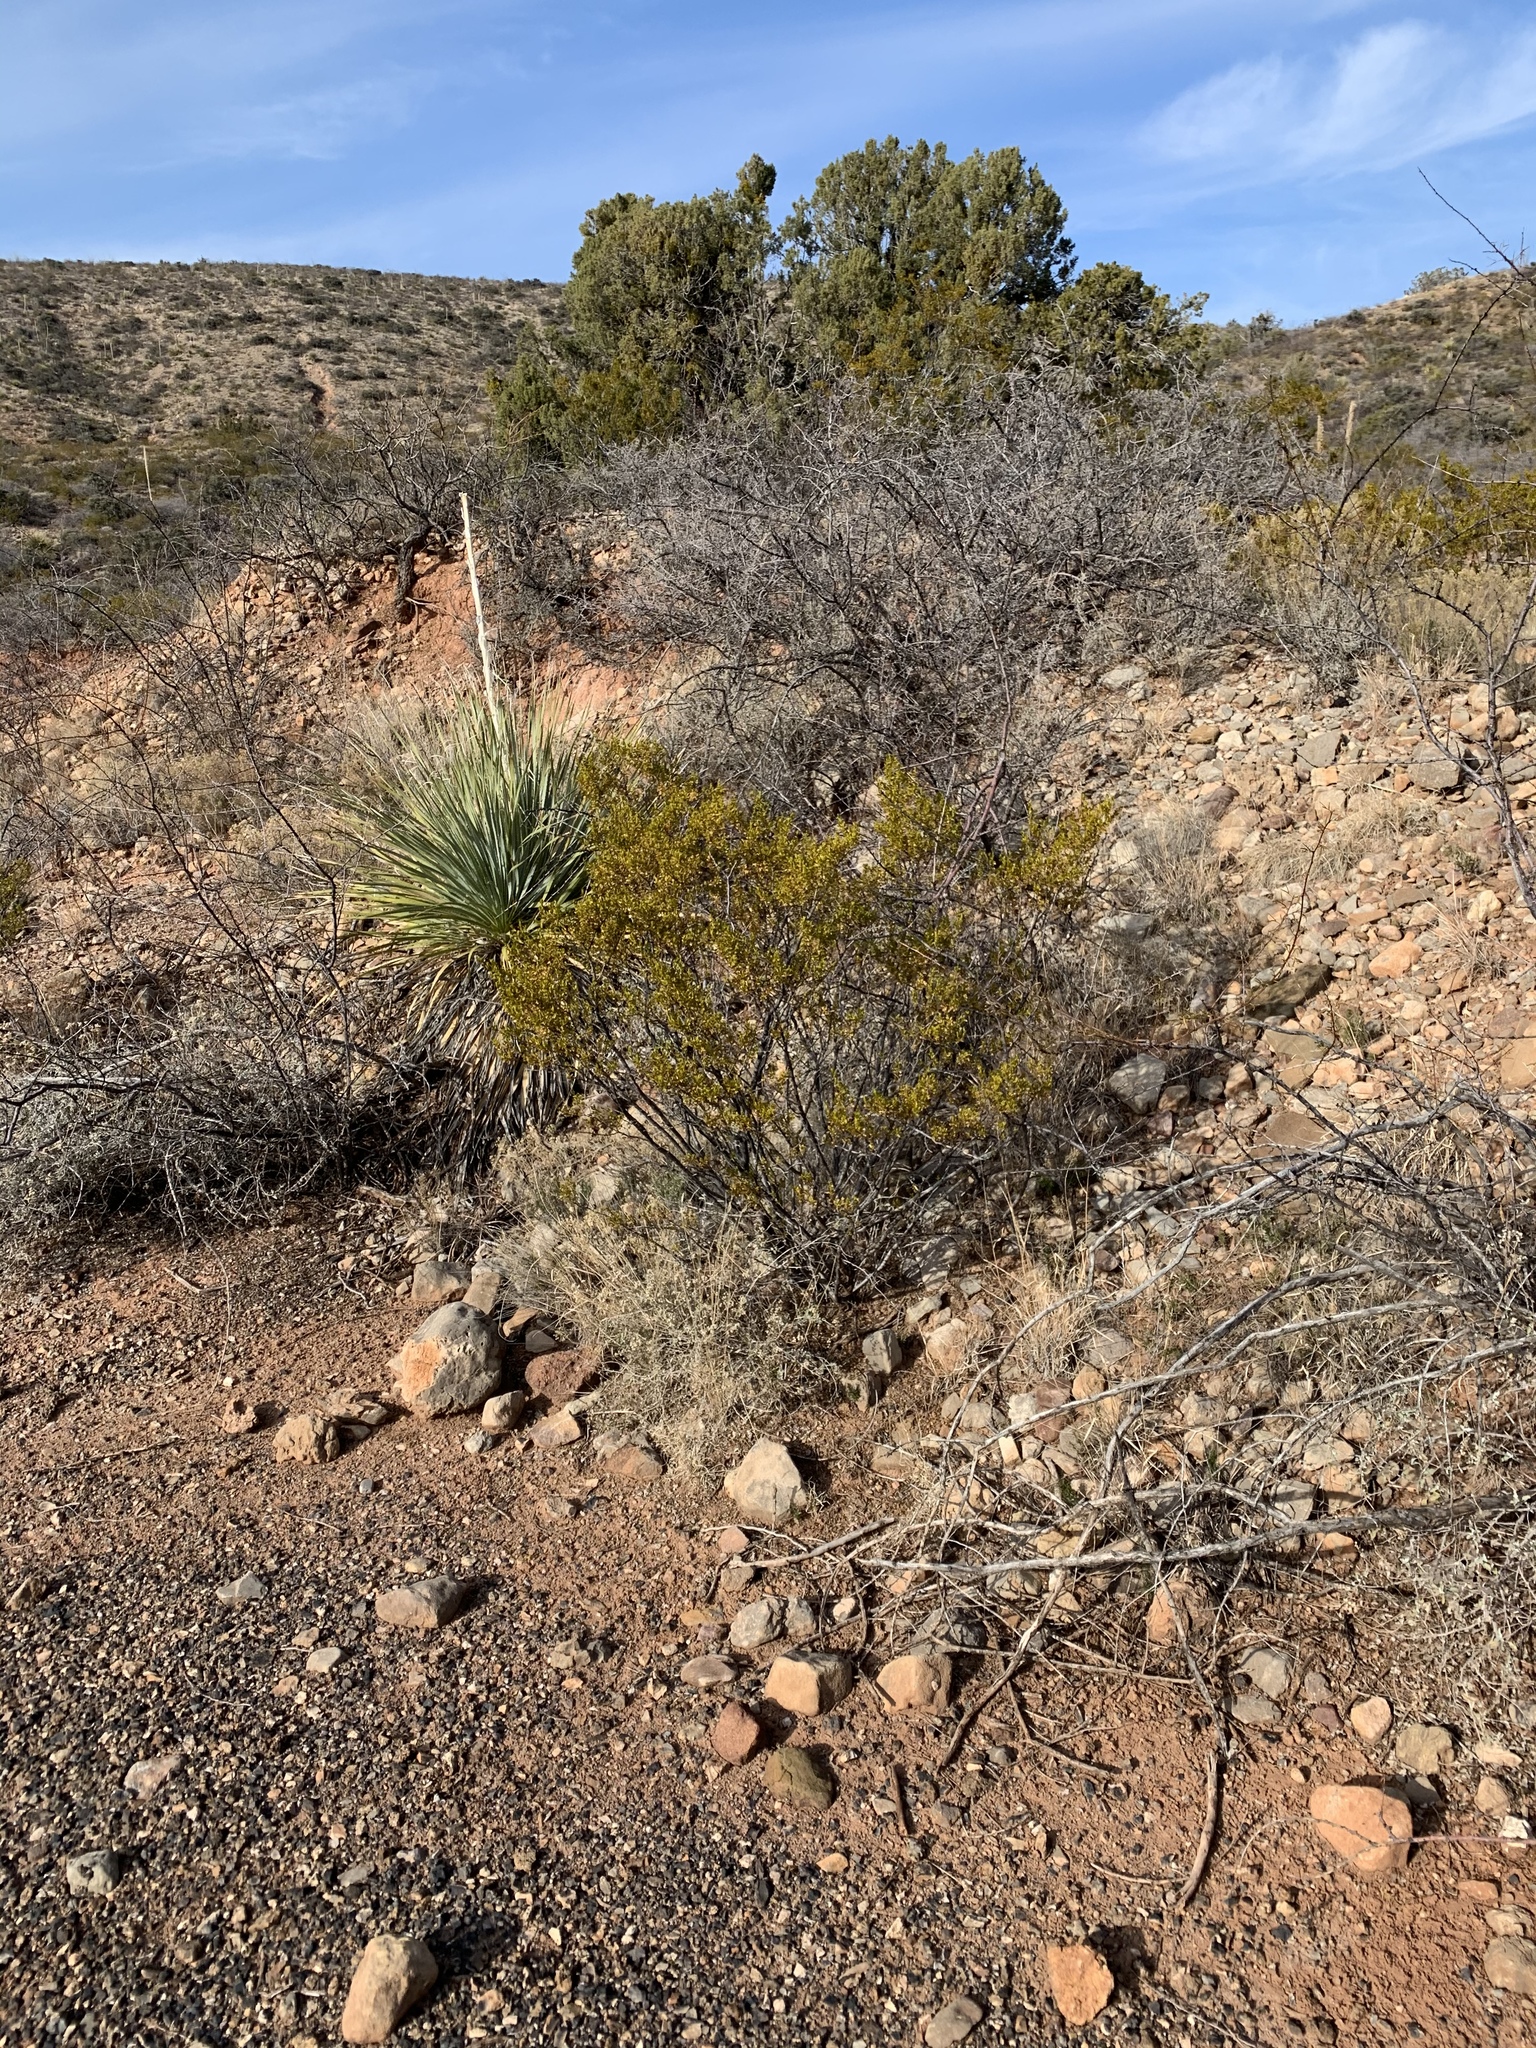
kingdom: Plantae
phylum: Tracheophyta
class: Magnoliopsida
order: Zygophyllales
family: Zygophyllaceae
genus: Larrea
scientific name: Larrea tridentata
